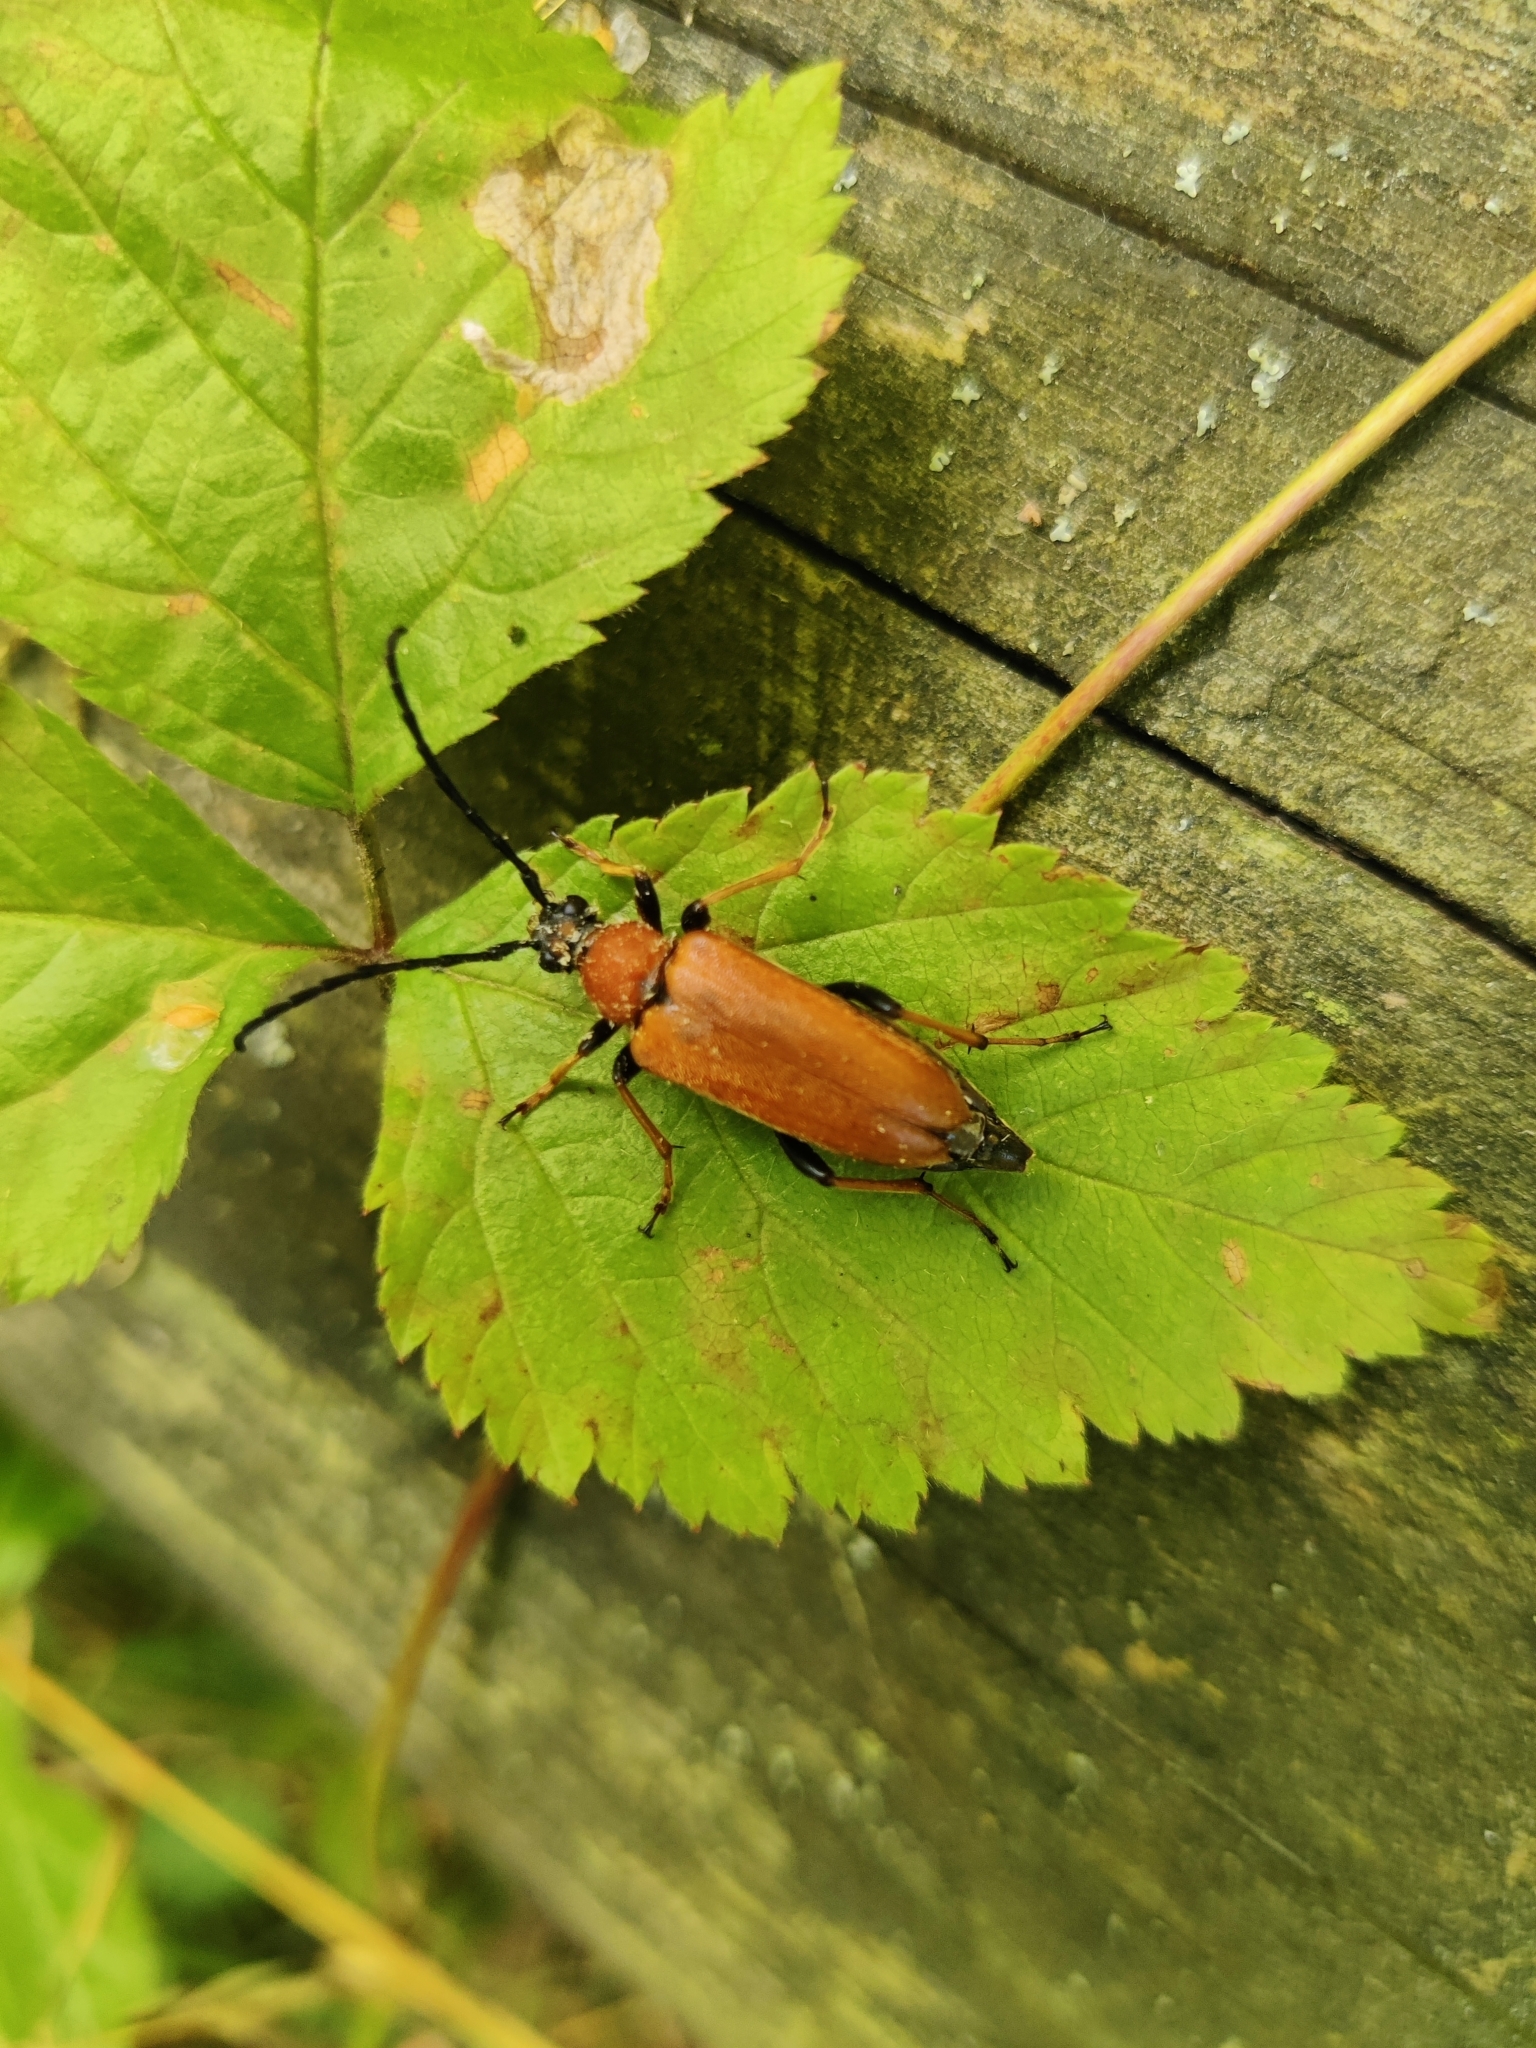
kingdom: Animalia
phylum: Arthropoda
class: Insecta
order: Coleoptera
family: Cerambycidae
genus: Stictoleptura
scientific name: Stictoleptura rubra
